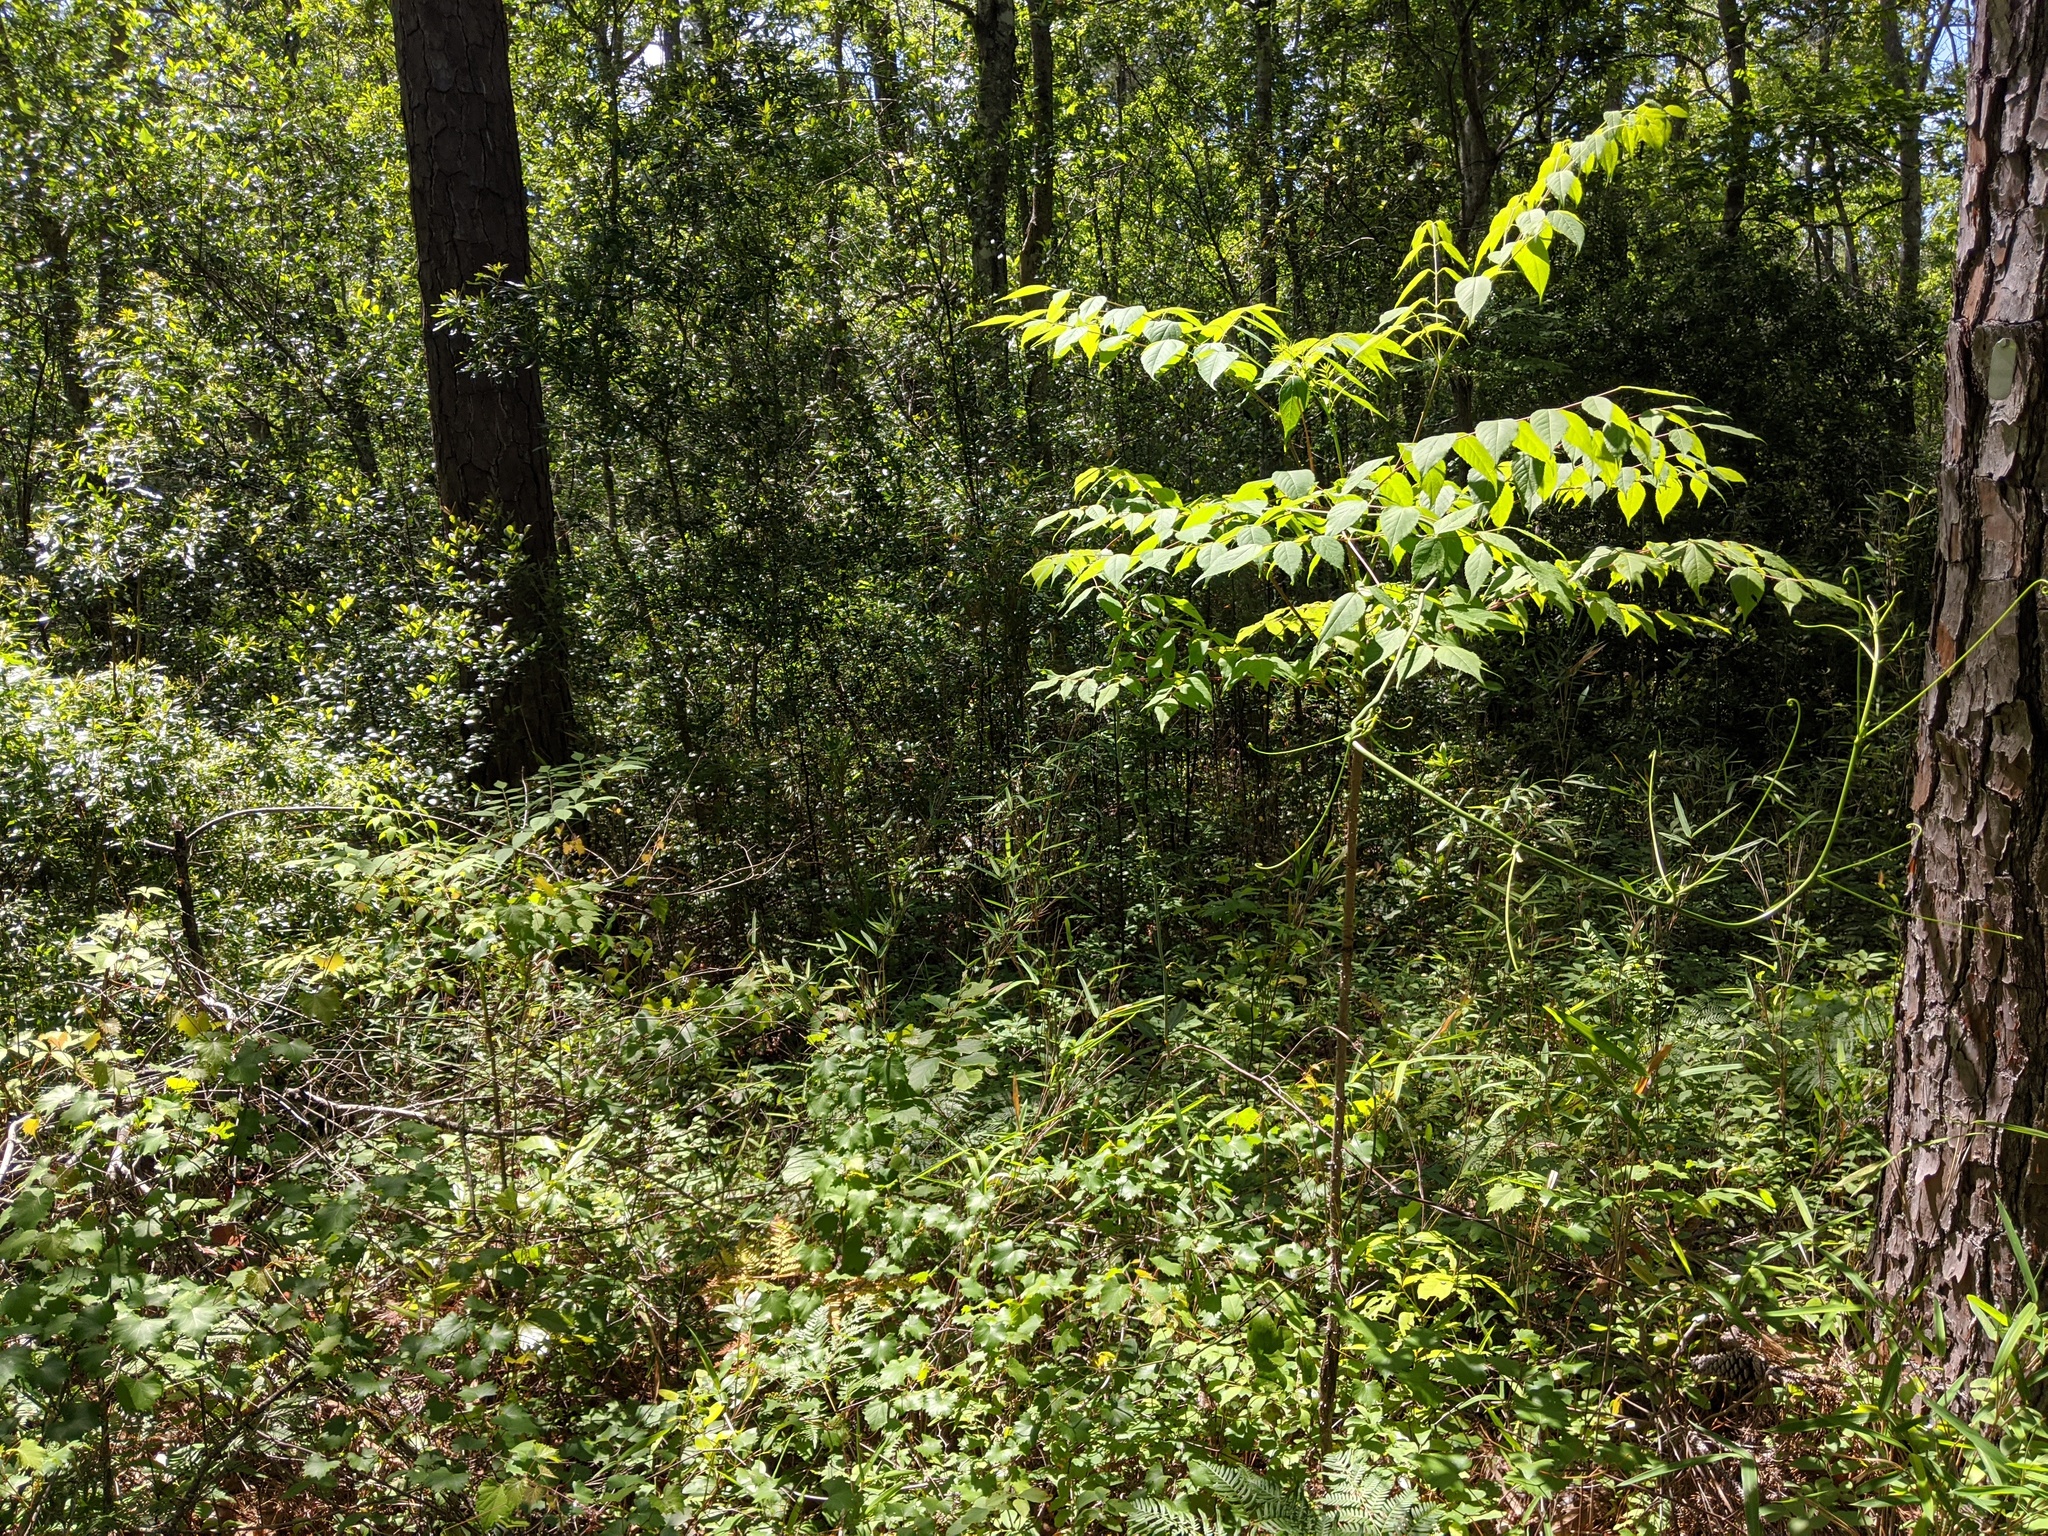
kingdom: Plantae
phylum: Tracheophyta
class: Magnoliopsida
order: Apiales
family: Araliaceae
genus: Aralia
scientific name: Aralia spinosa
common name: Hercules'-club
